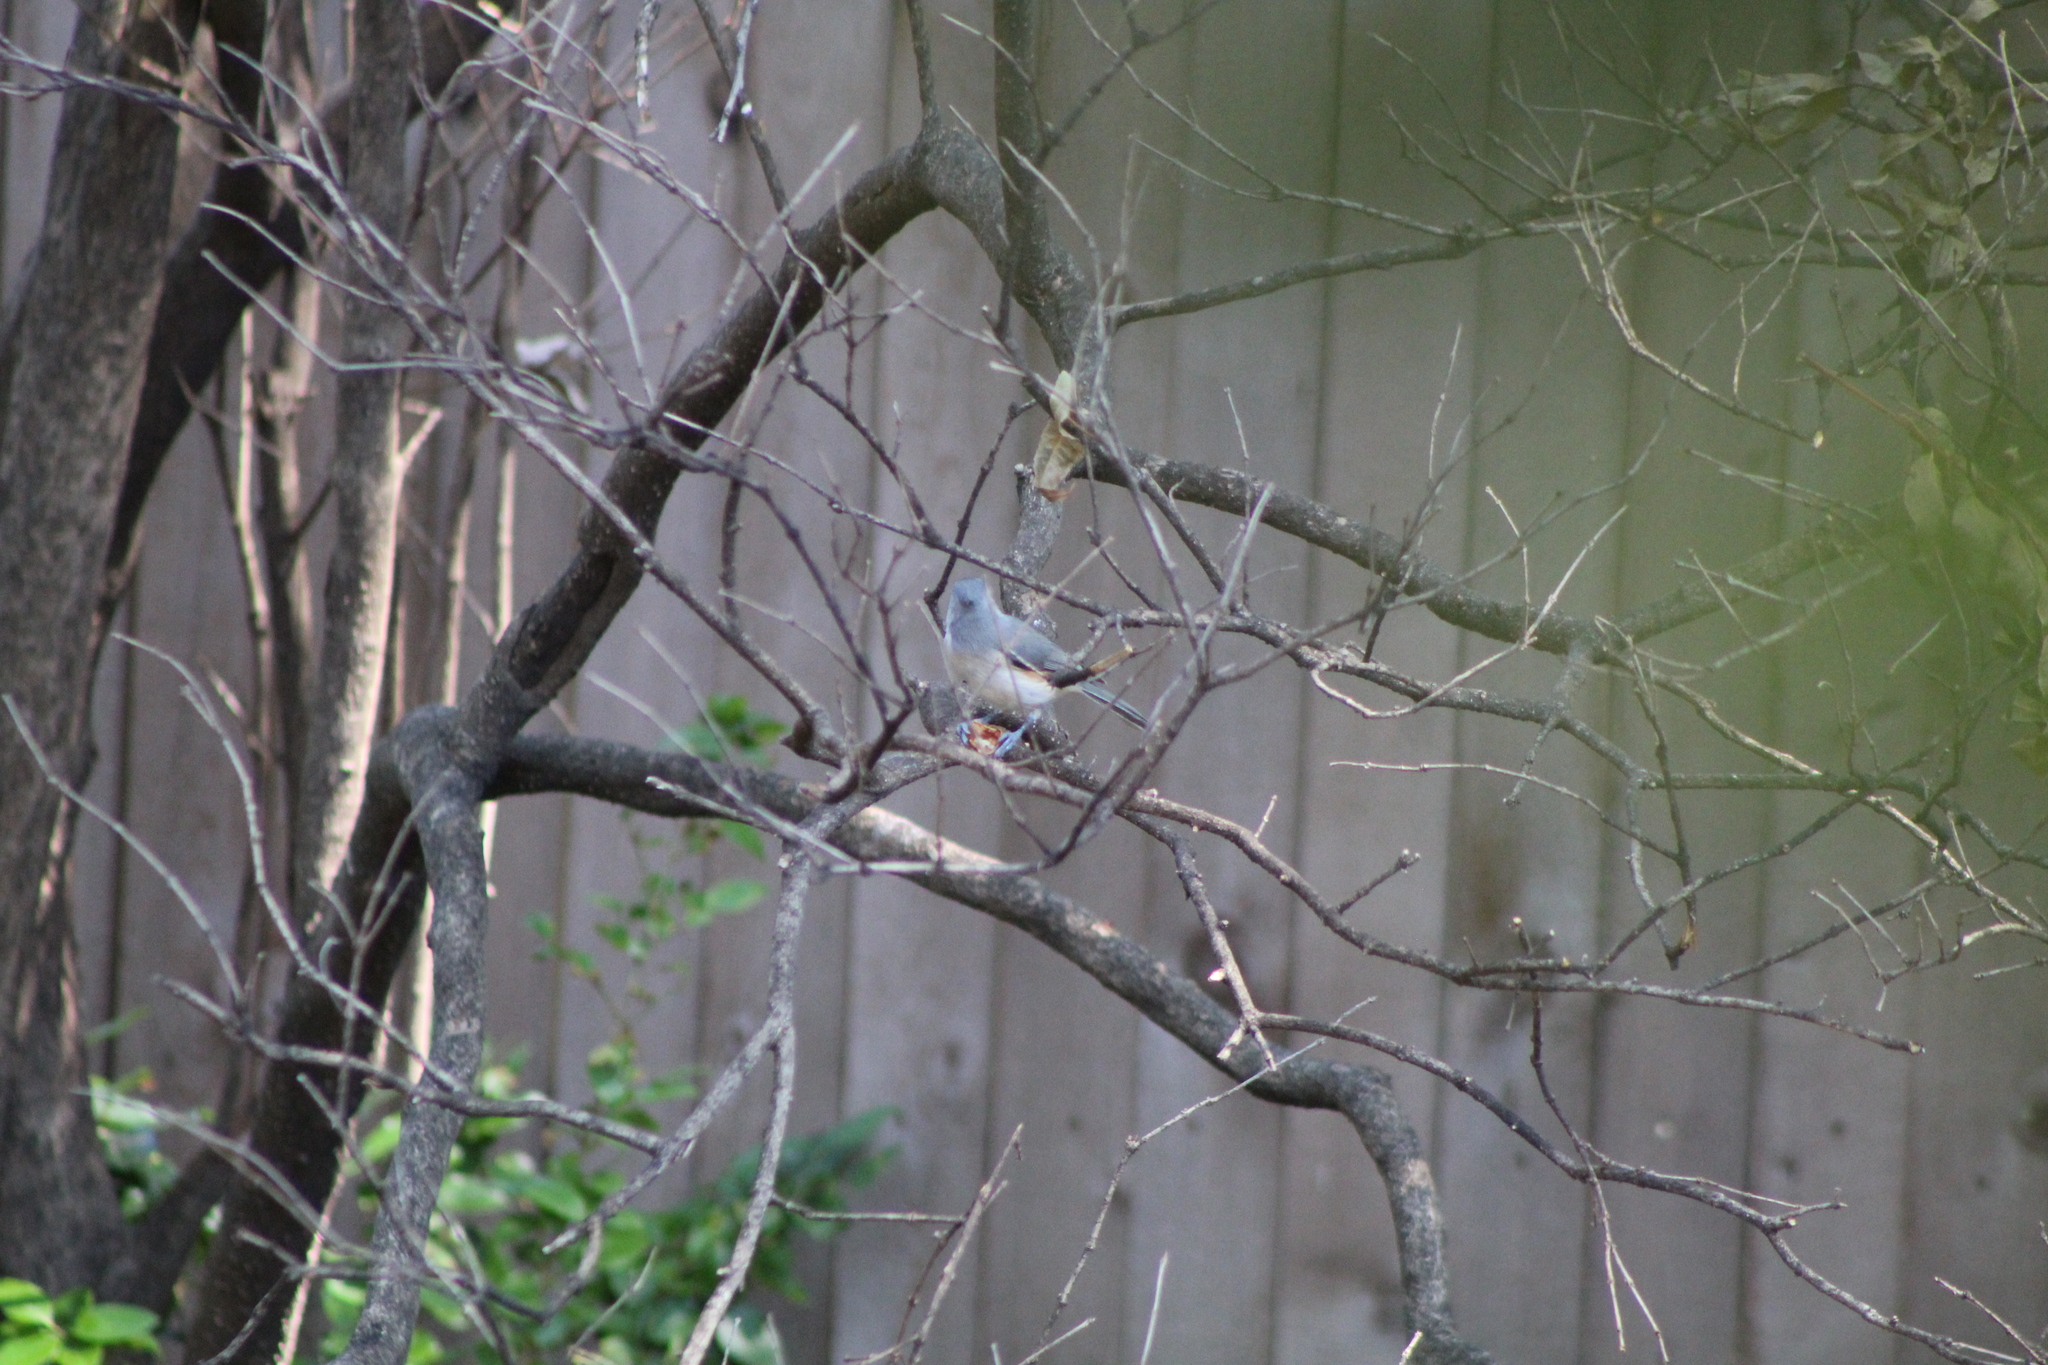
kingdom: Animalia
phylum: Chordata
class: Aves
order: Passeriformes
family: Paridae
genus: Baeolophus
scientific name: Baeolophus bicolor
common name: Tufted titmouse
